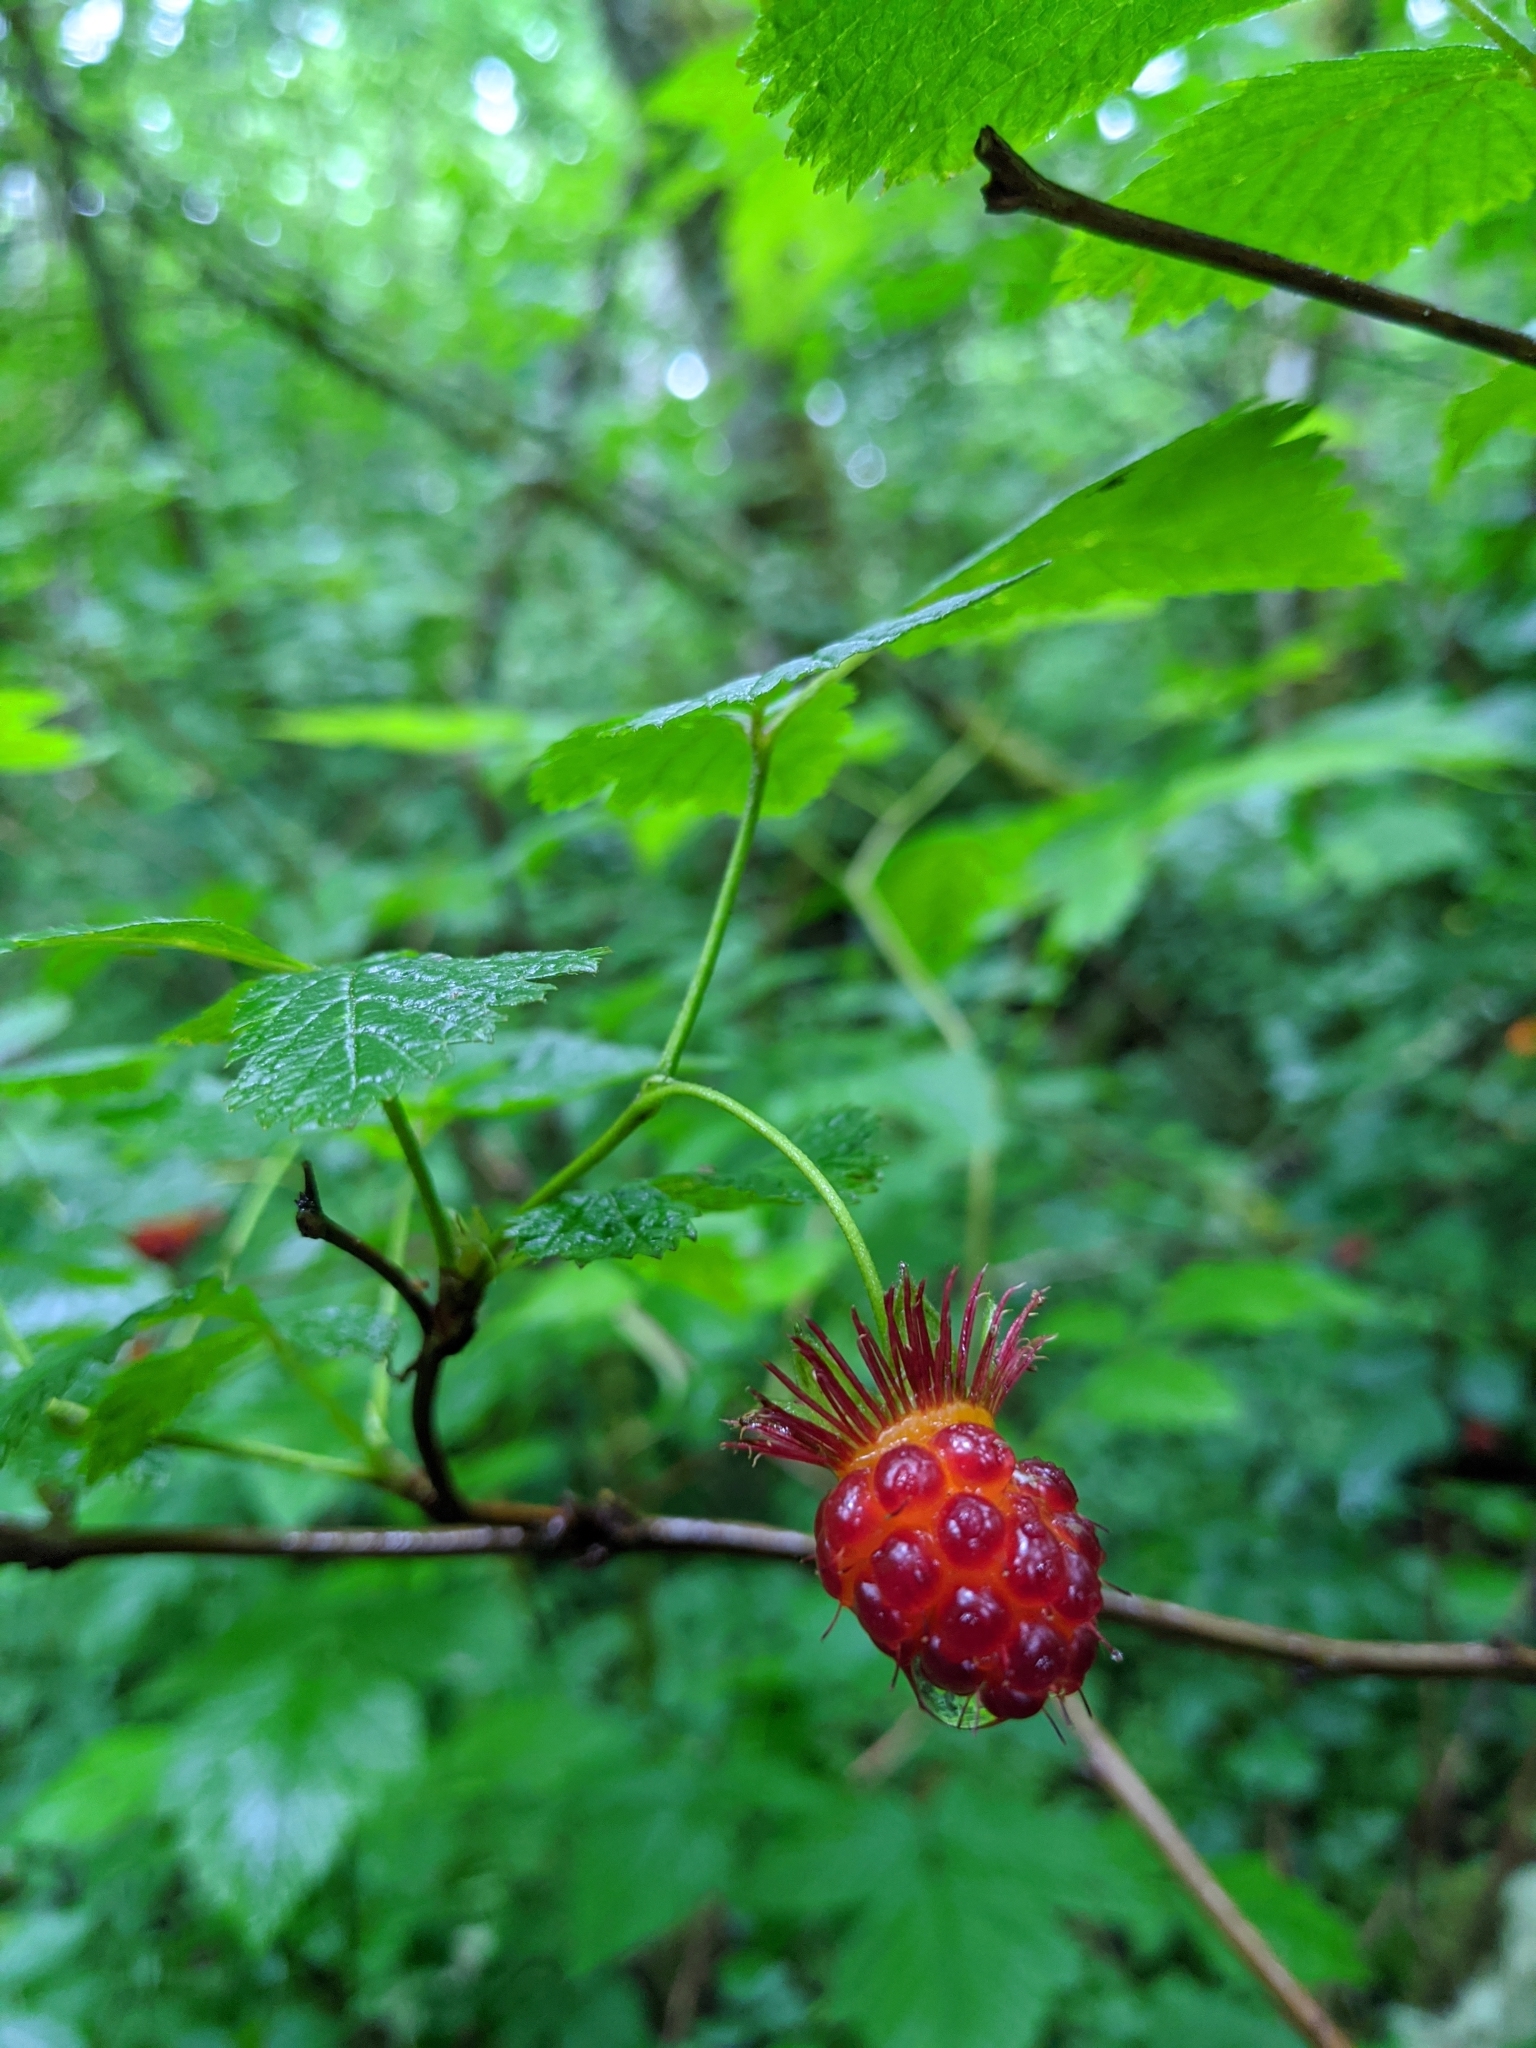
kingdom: Plantae
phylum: Tracheophyta
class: Magnoliopsida
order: Rosales
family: Rosaceae
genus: Rubus
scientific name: Rubus spectabilis
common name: Salmonberry
